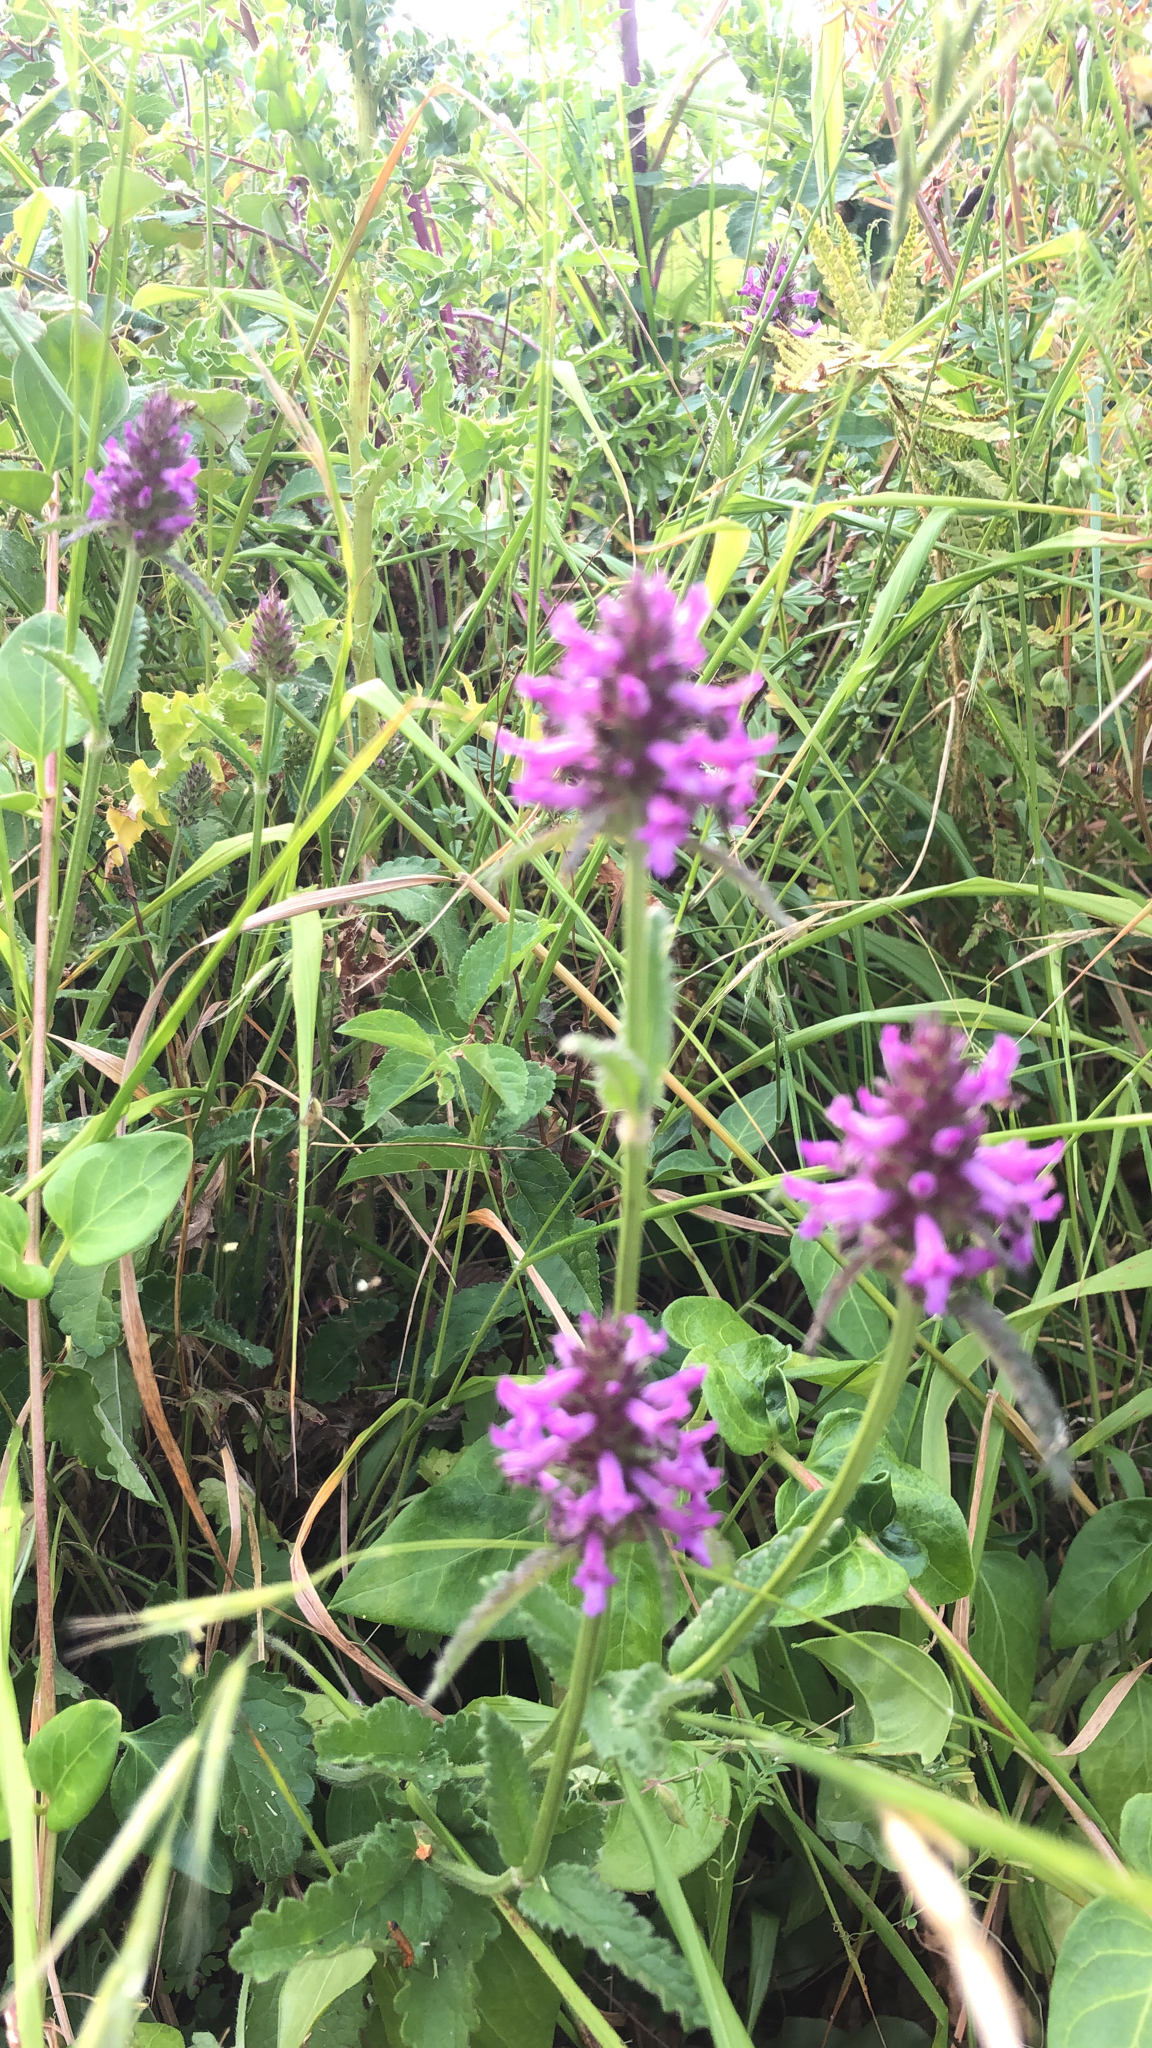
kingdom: Plantae
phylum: Tracheophyta
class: Magnoliopsida
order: Lamiales
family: Lamiaceae
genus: Betonica
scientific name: Betonica officinalis
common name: Bishop's-wort
